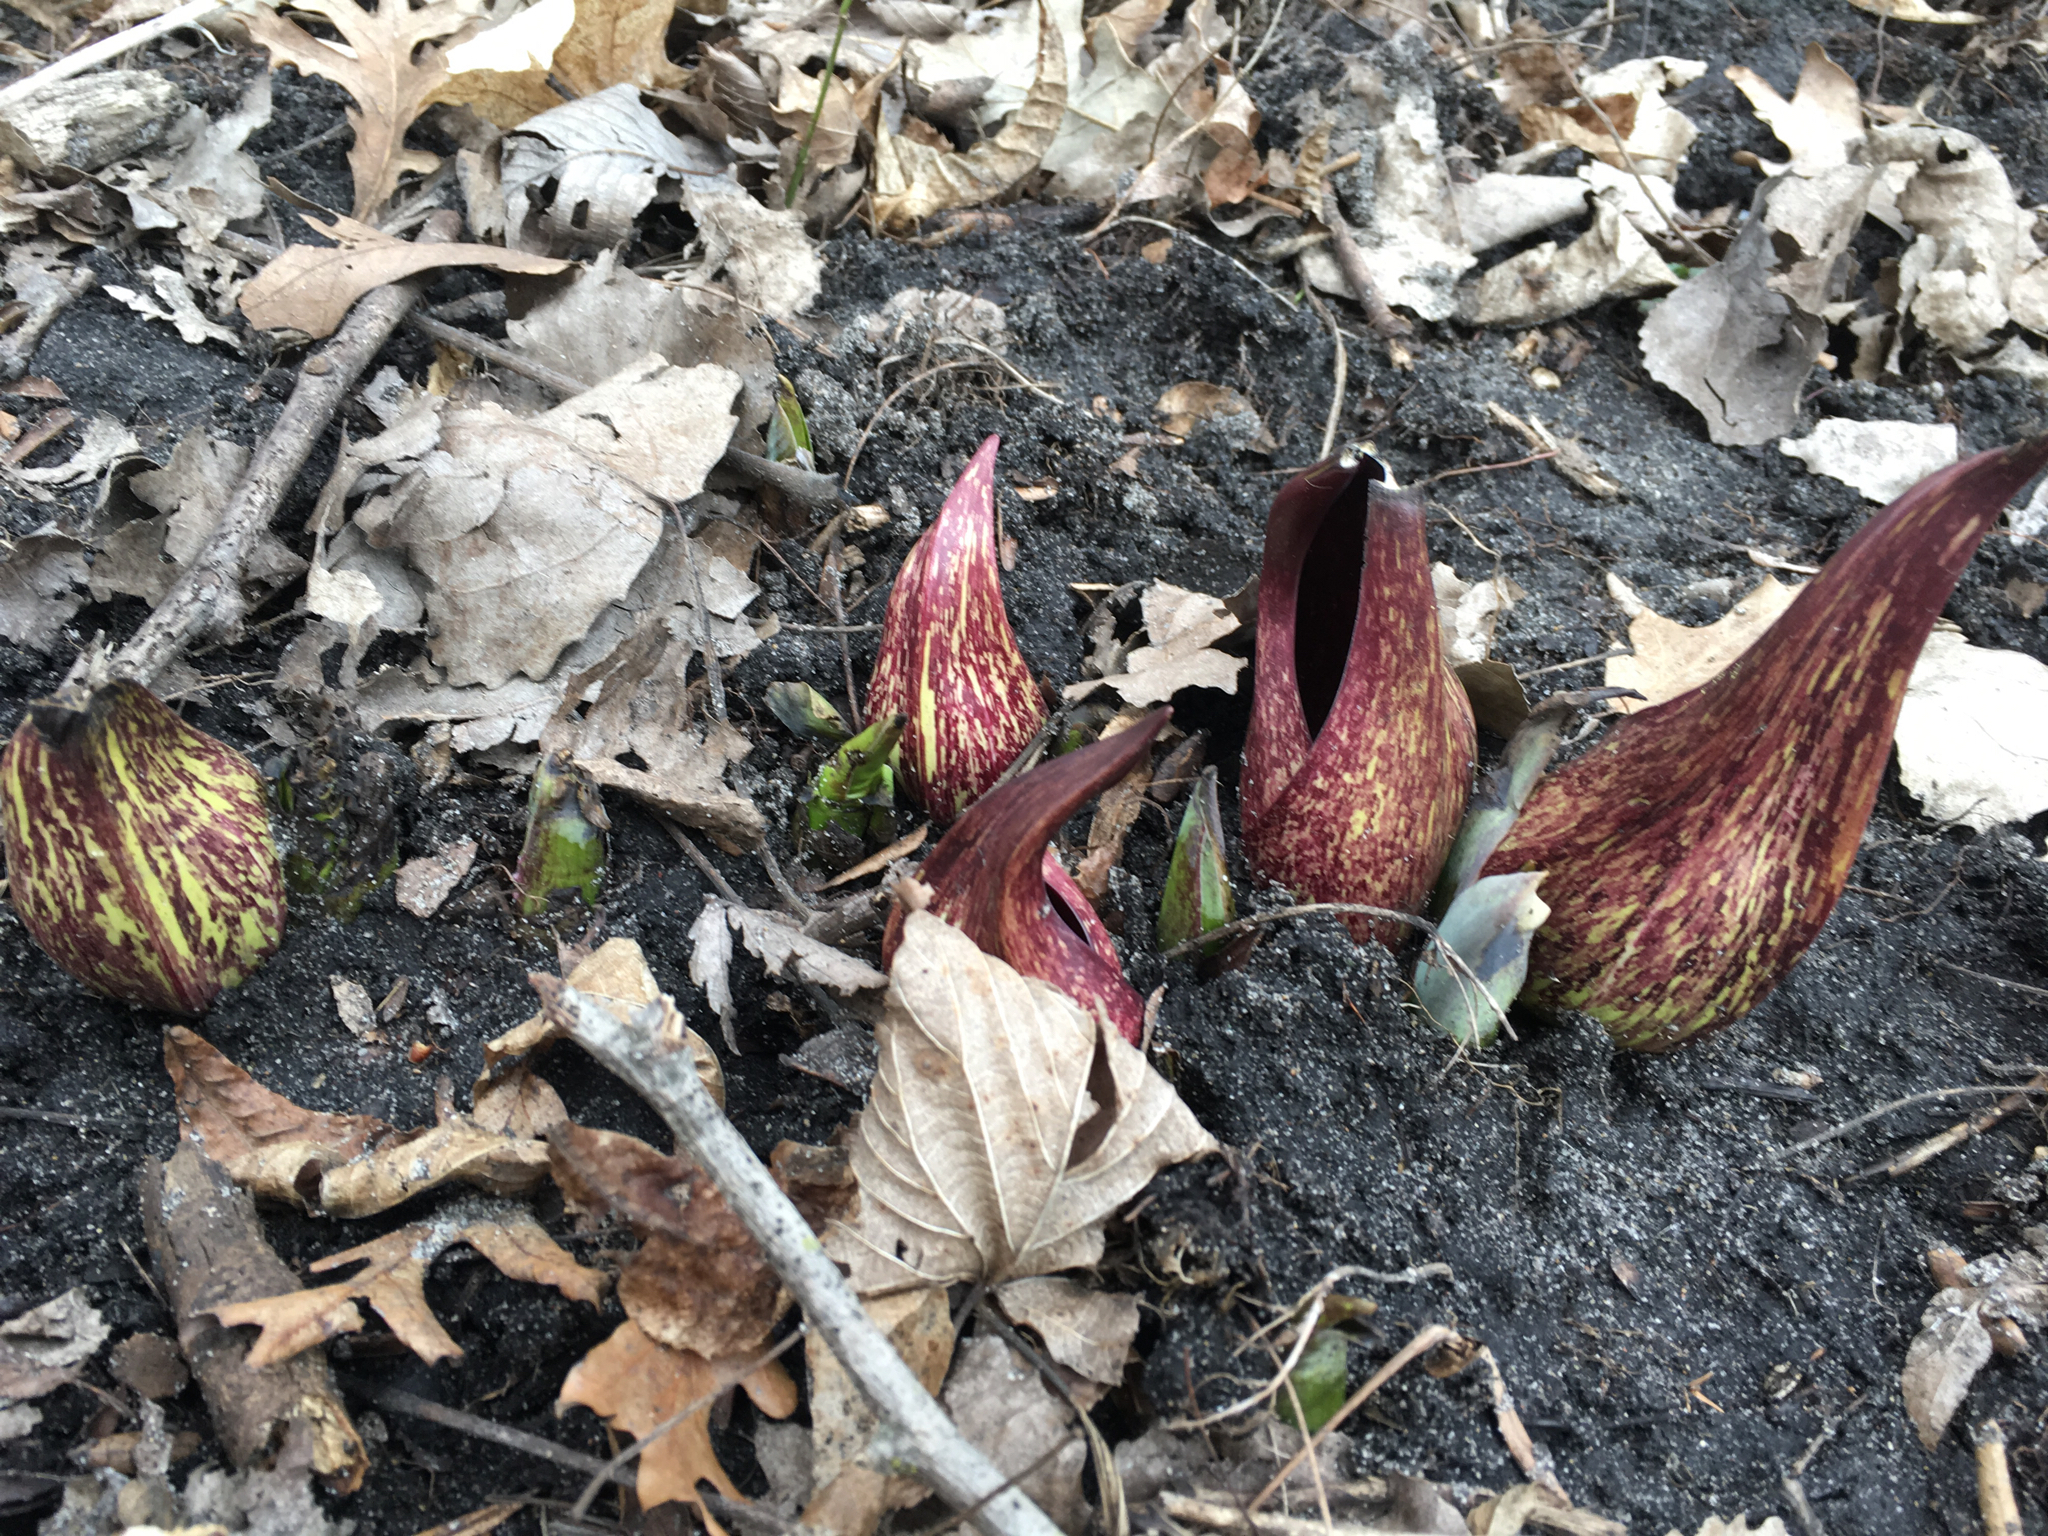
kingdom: Plantae
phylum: Tracheophyta
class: Liliopsida
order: Alismatales
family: Araceae
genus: Symplocarpus
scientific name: Symplocarpus foetidus
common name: Eastern skunk cabbage
